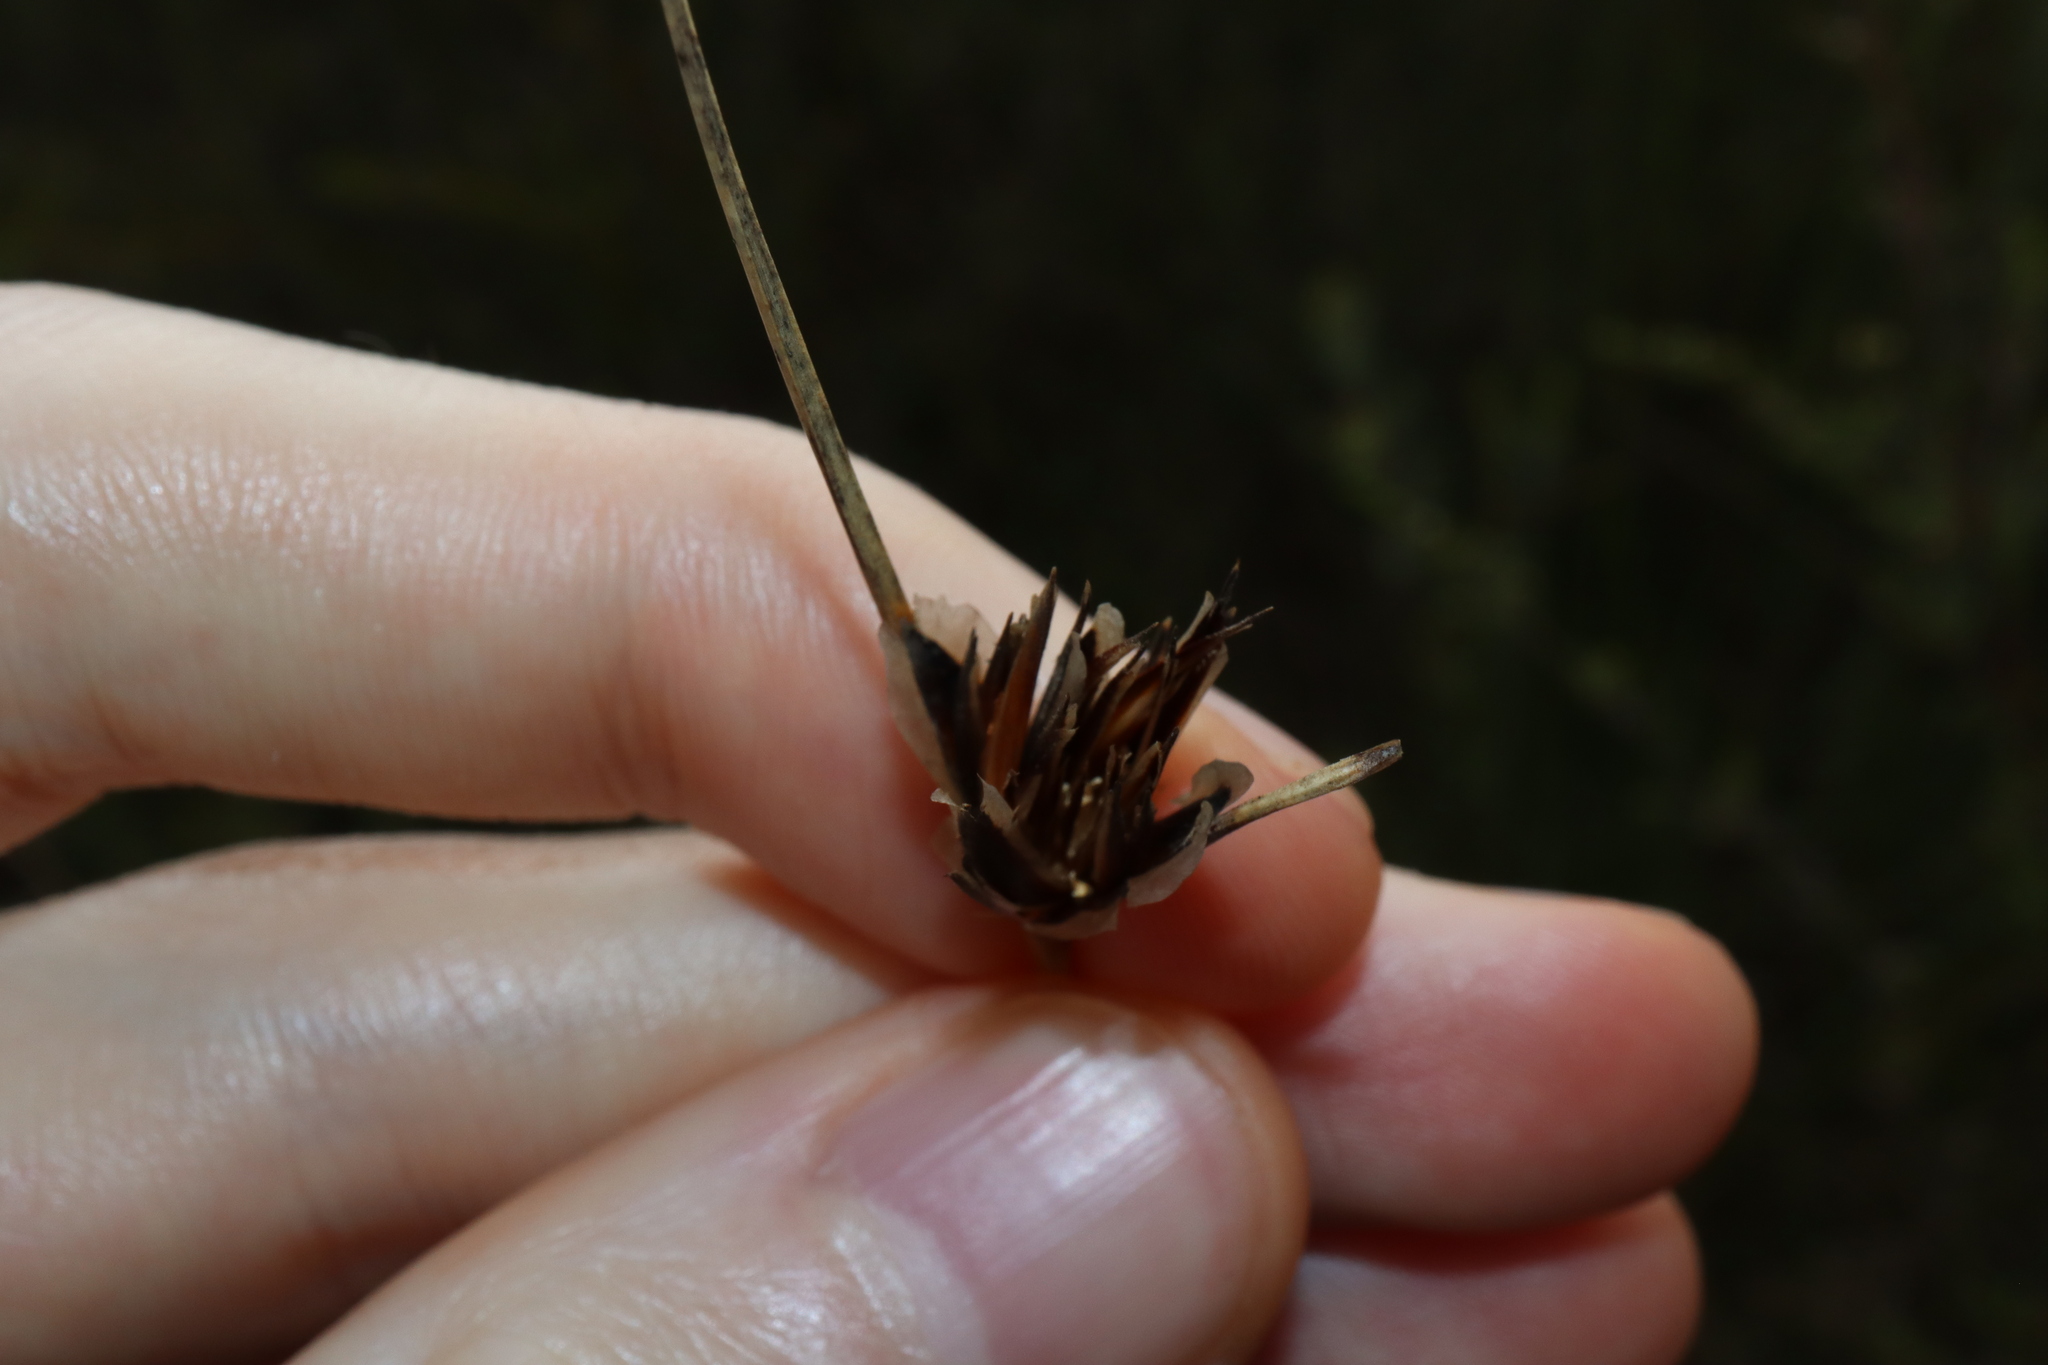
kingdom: Plantae
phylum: Tracheophyta
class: Liliopsida
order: Poales
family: Cyperaceae
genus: Ptilothrix
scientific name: Ptilothrix deusta
